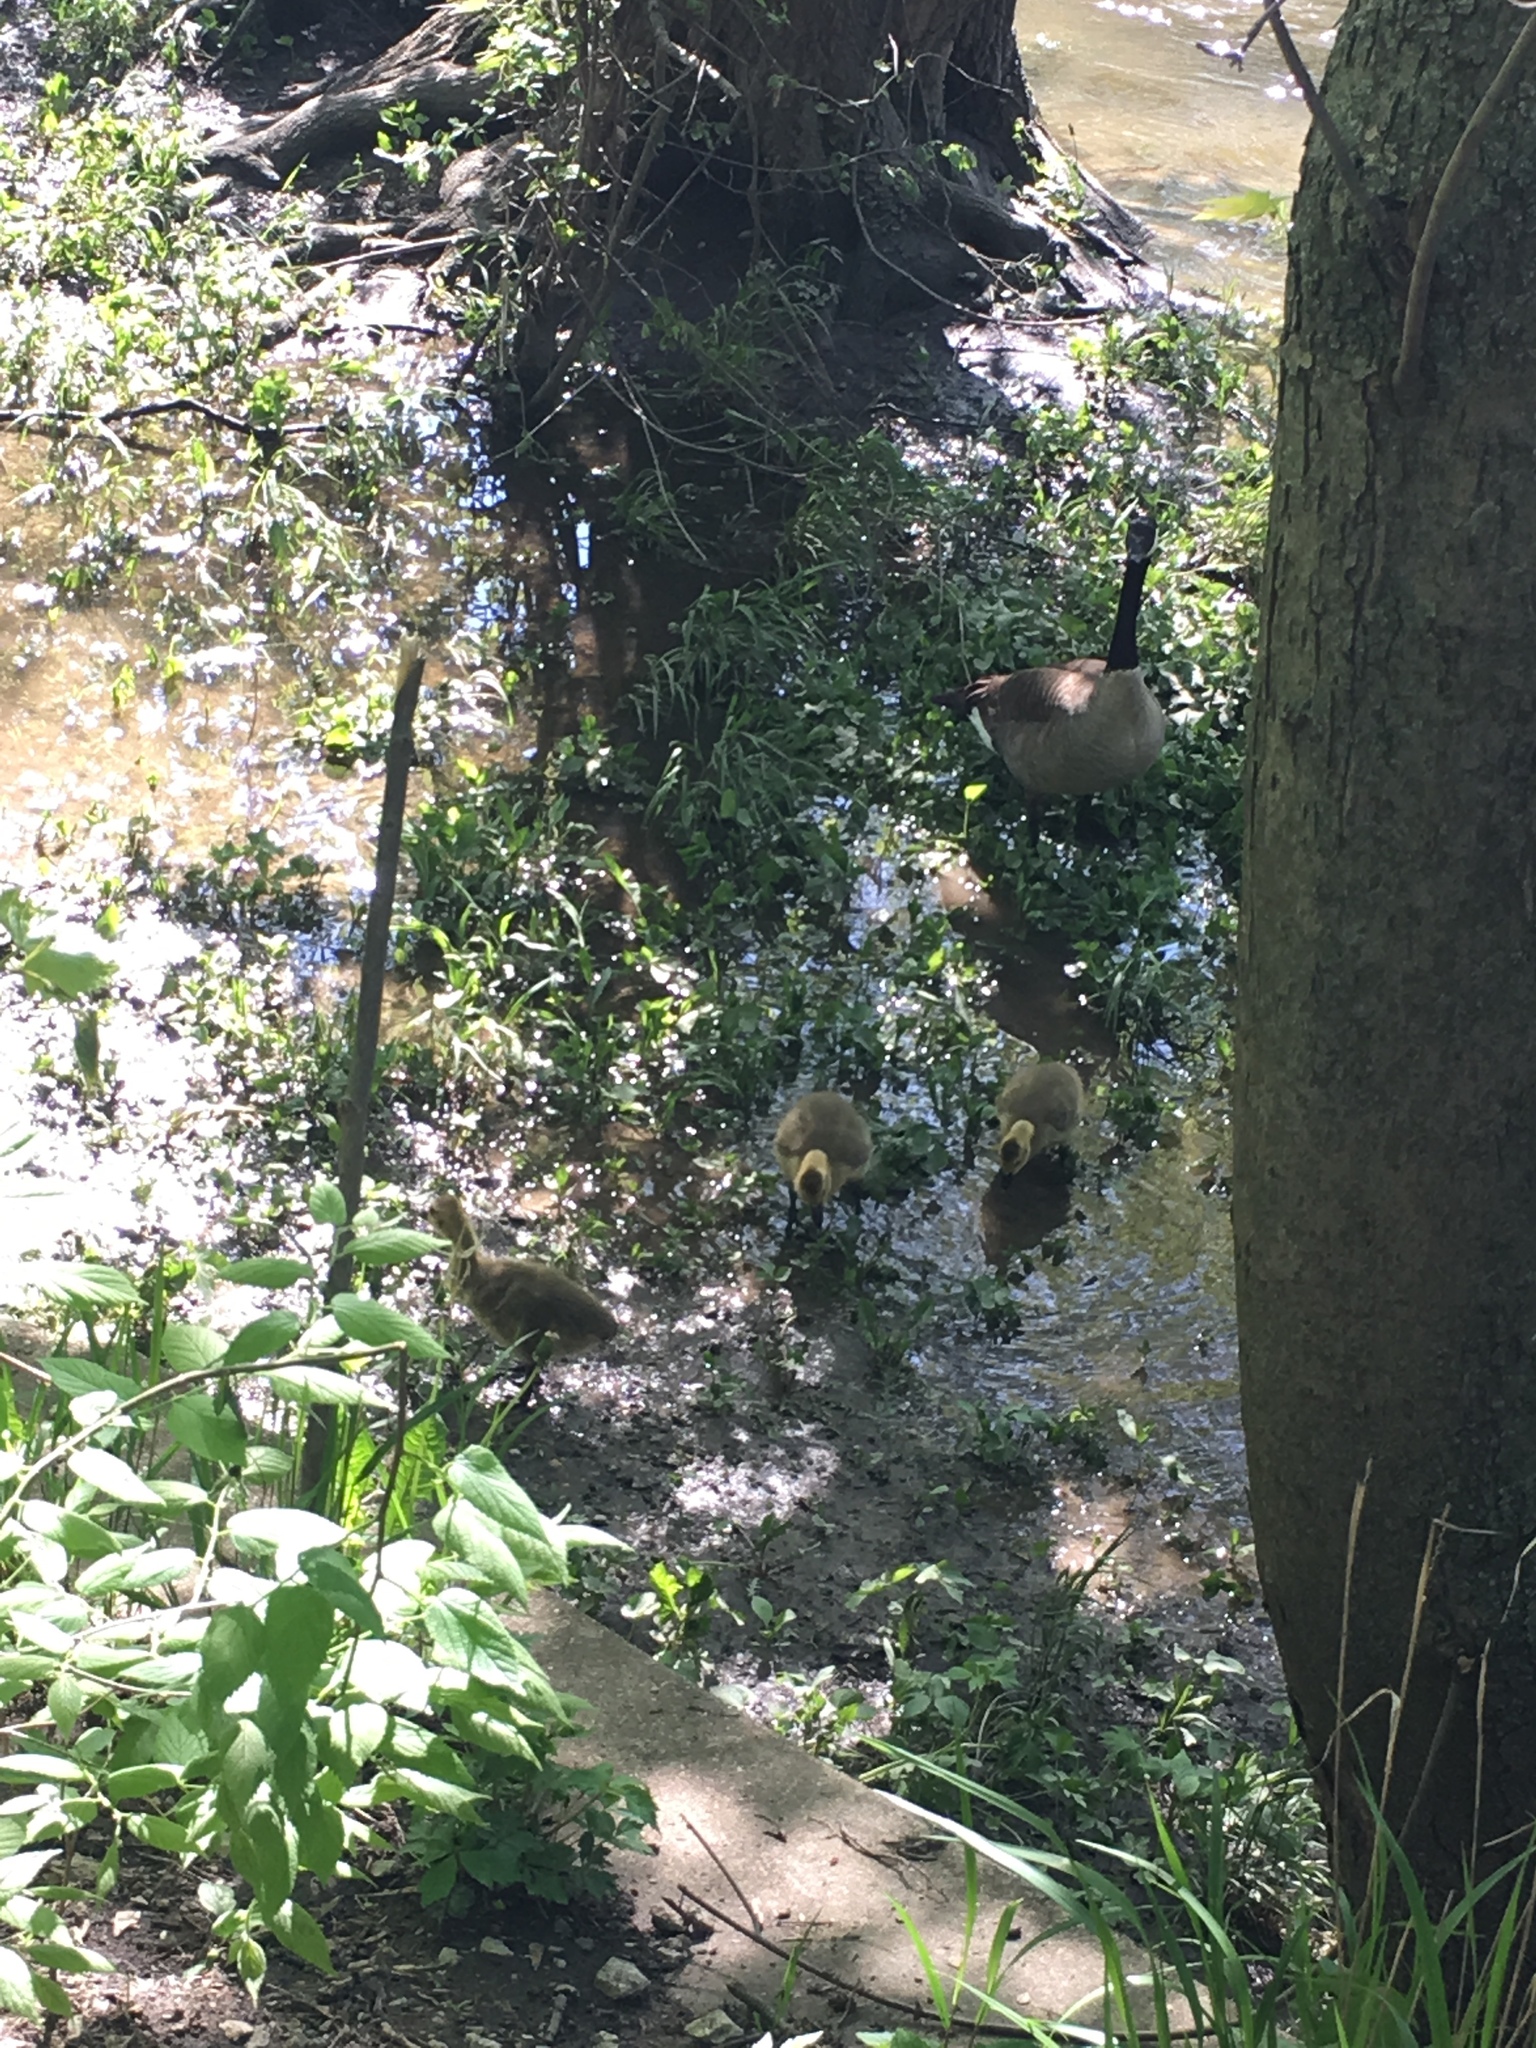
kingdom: Animalia
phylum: Chordata
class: Aves
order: Anseriformes
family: Anatidae
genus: Branta
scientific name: Branta canadensis
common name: Canada goose
